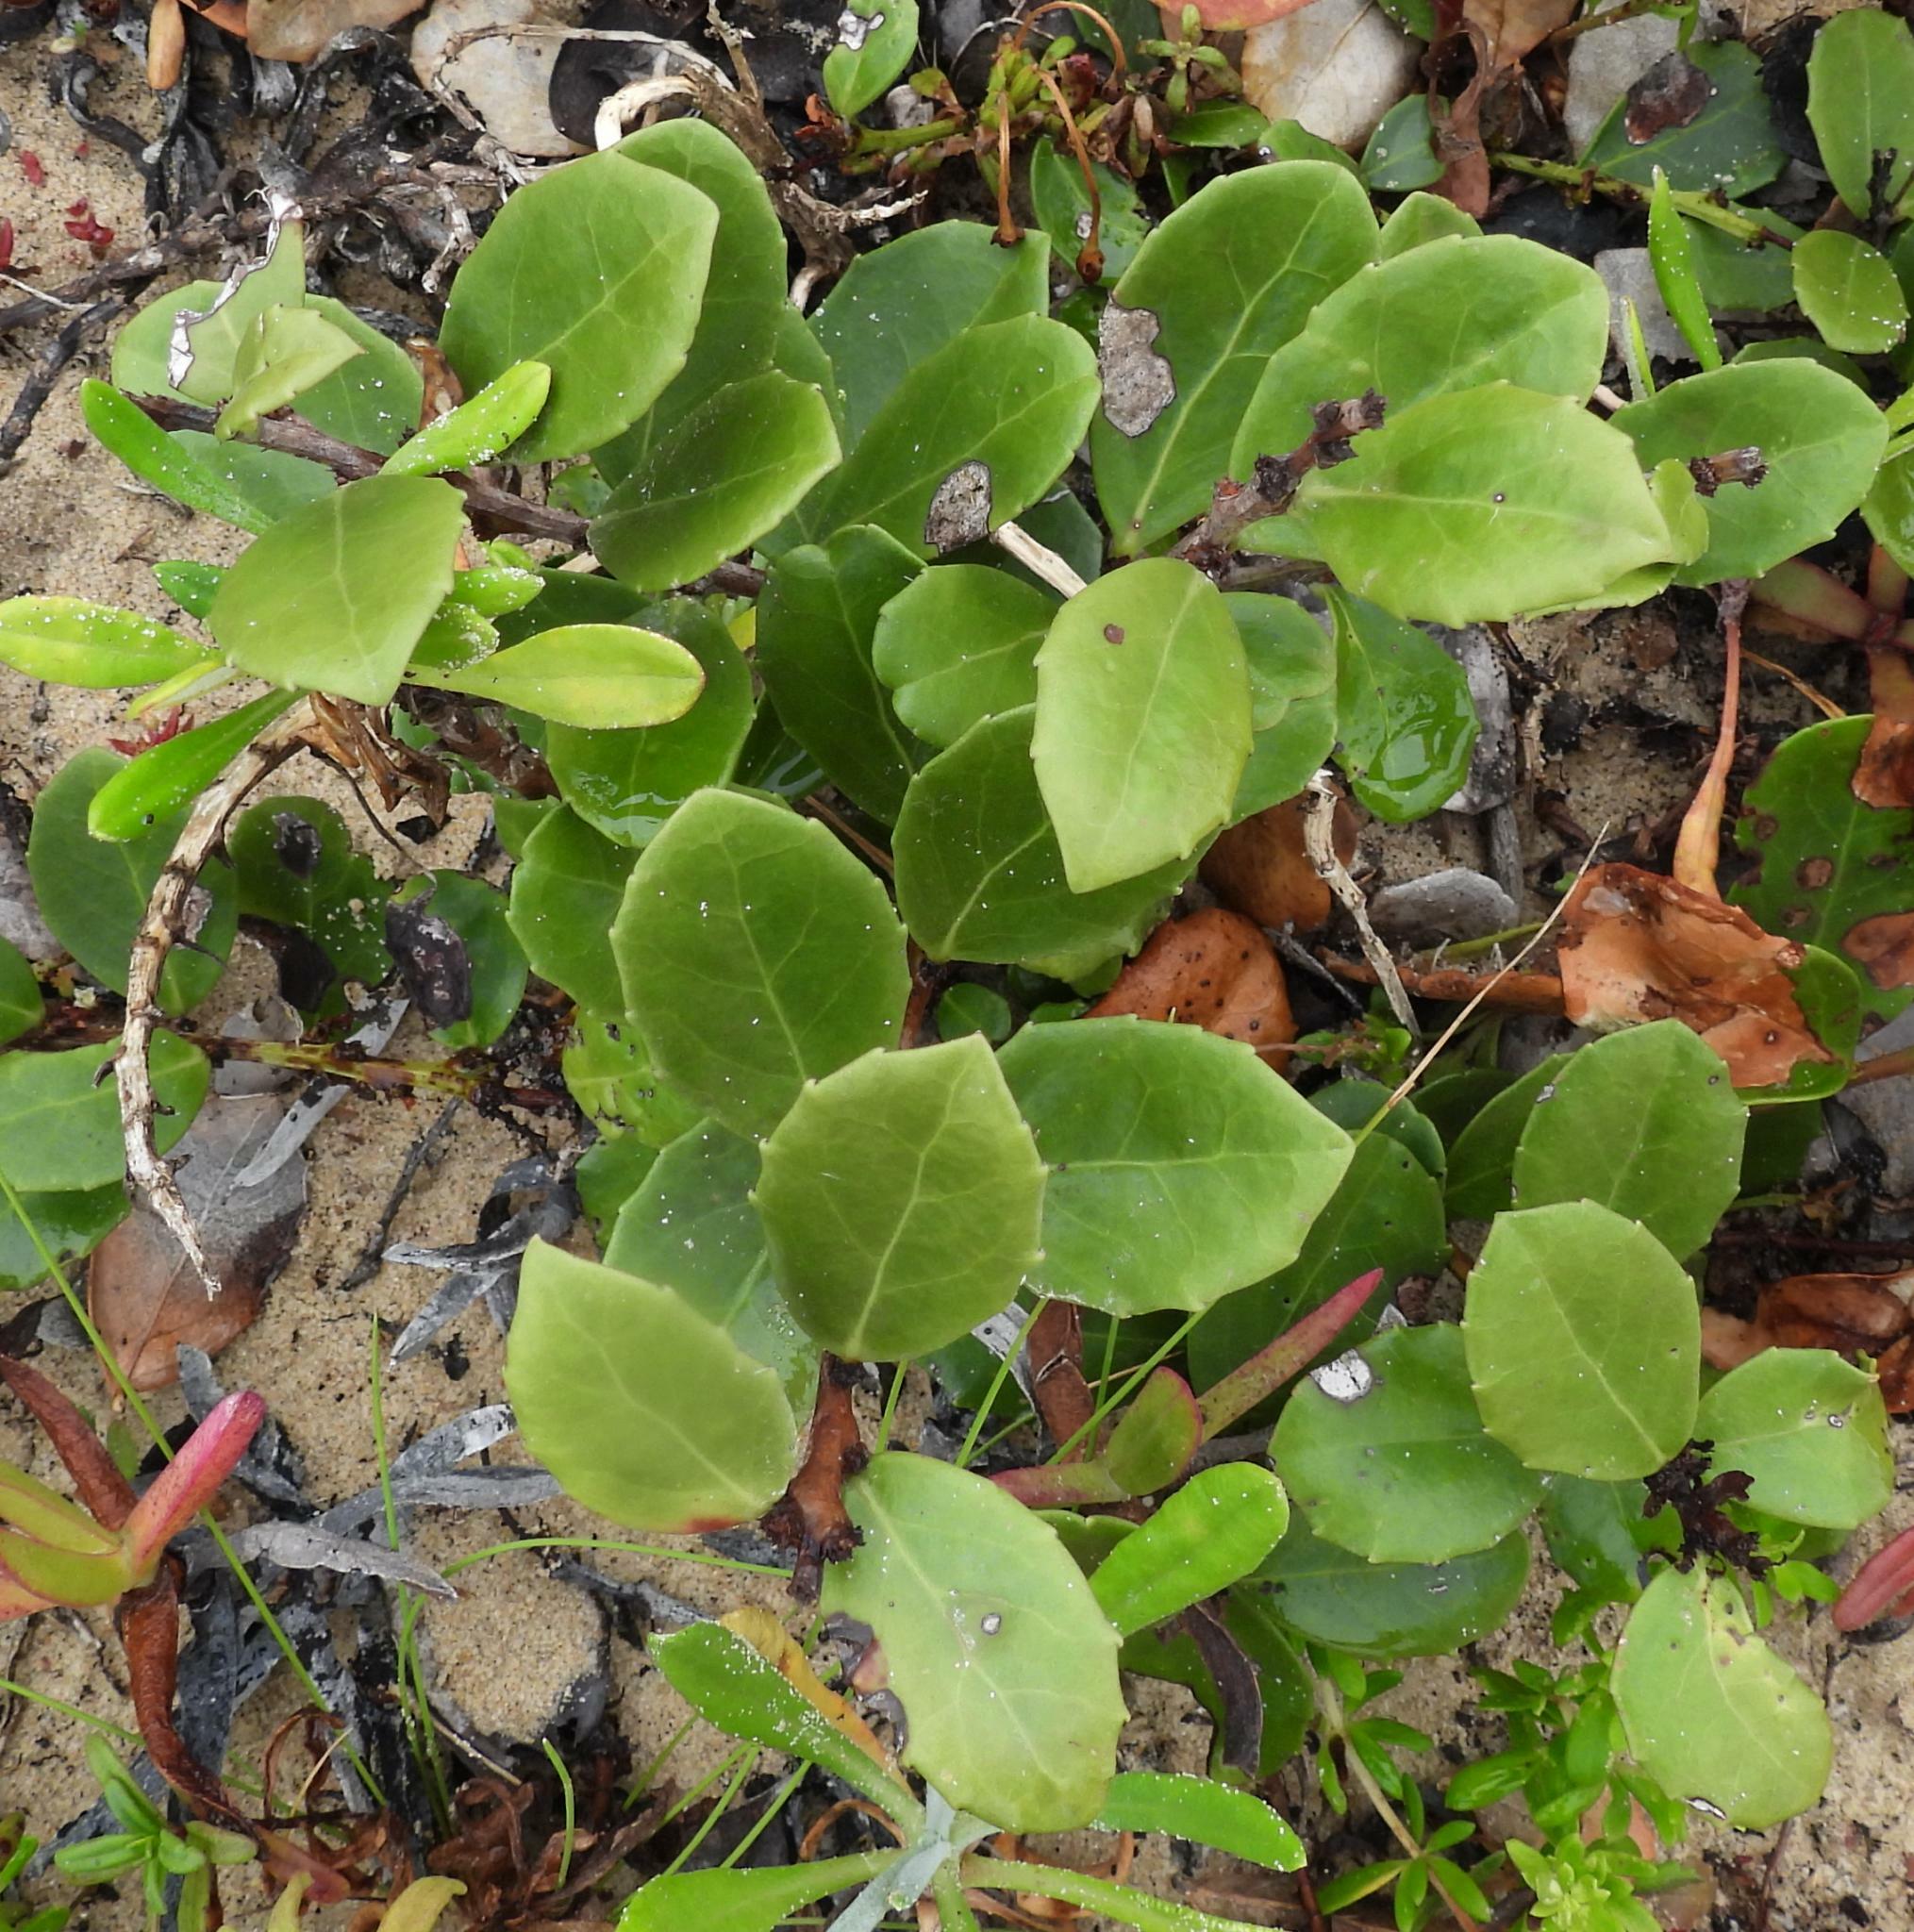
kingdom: Plantae
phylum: Tracheophyta
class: Magnoliopsida
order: Celastrales
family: Celastraceae
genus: Gymnosporia
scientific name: Gymnosporia procumbens
